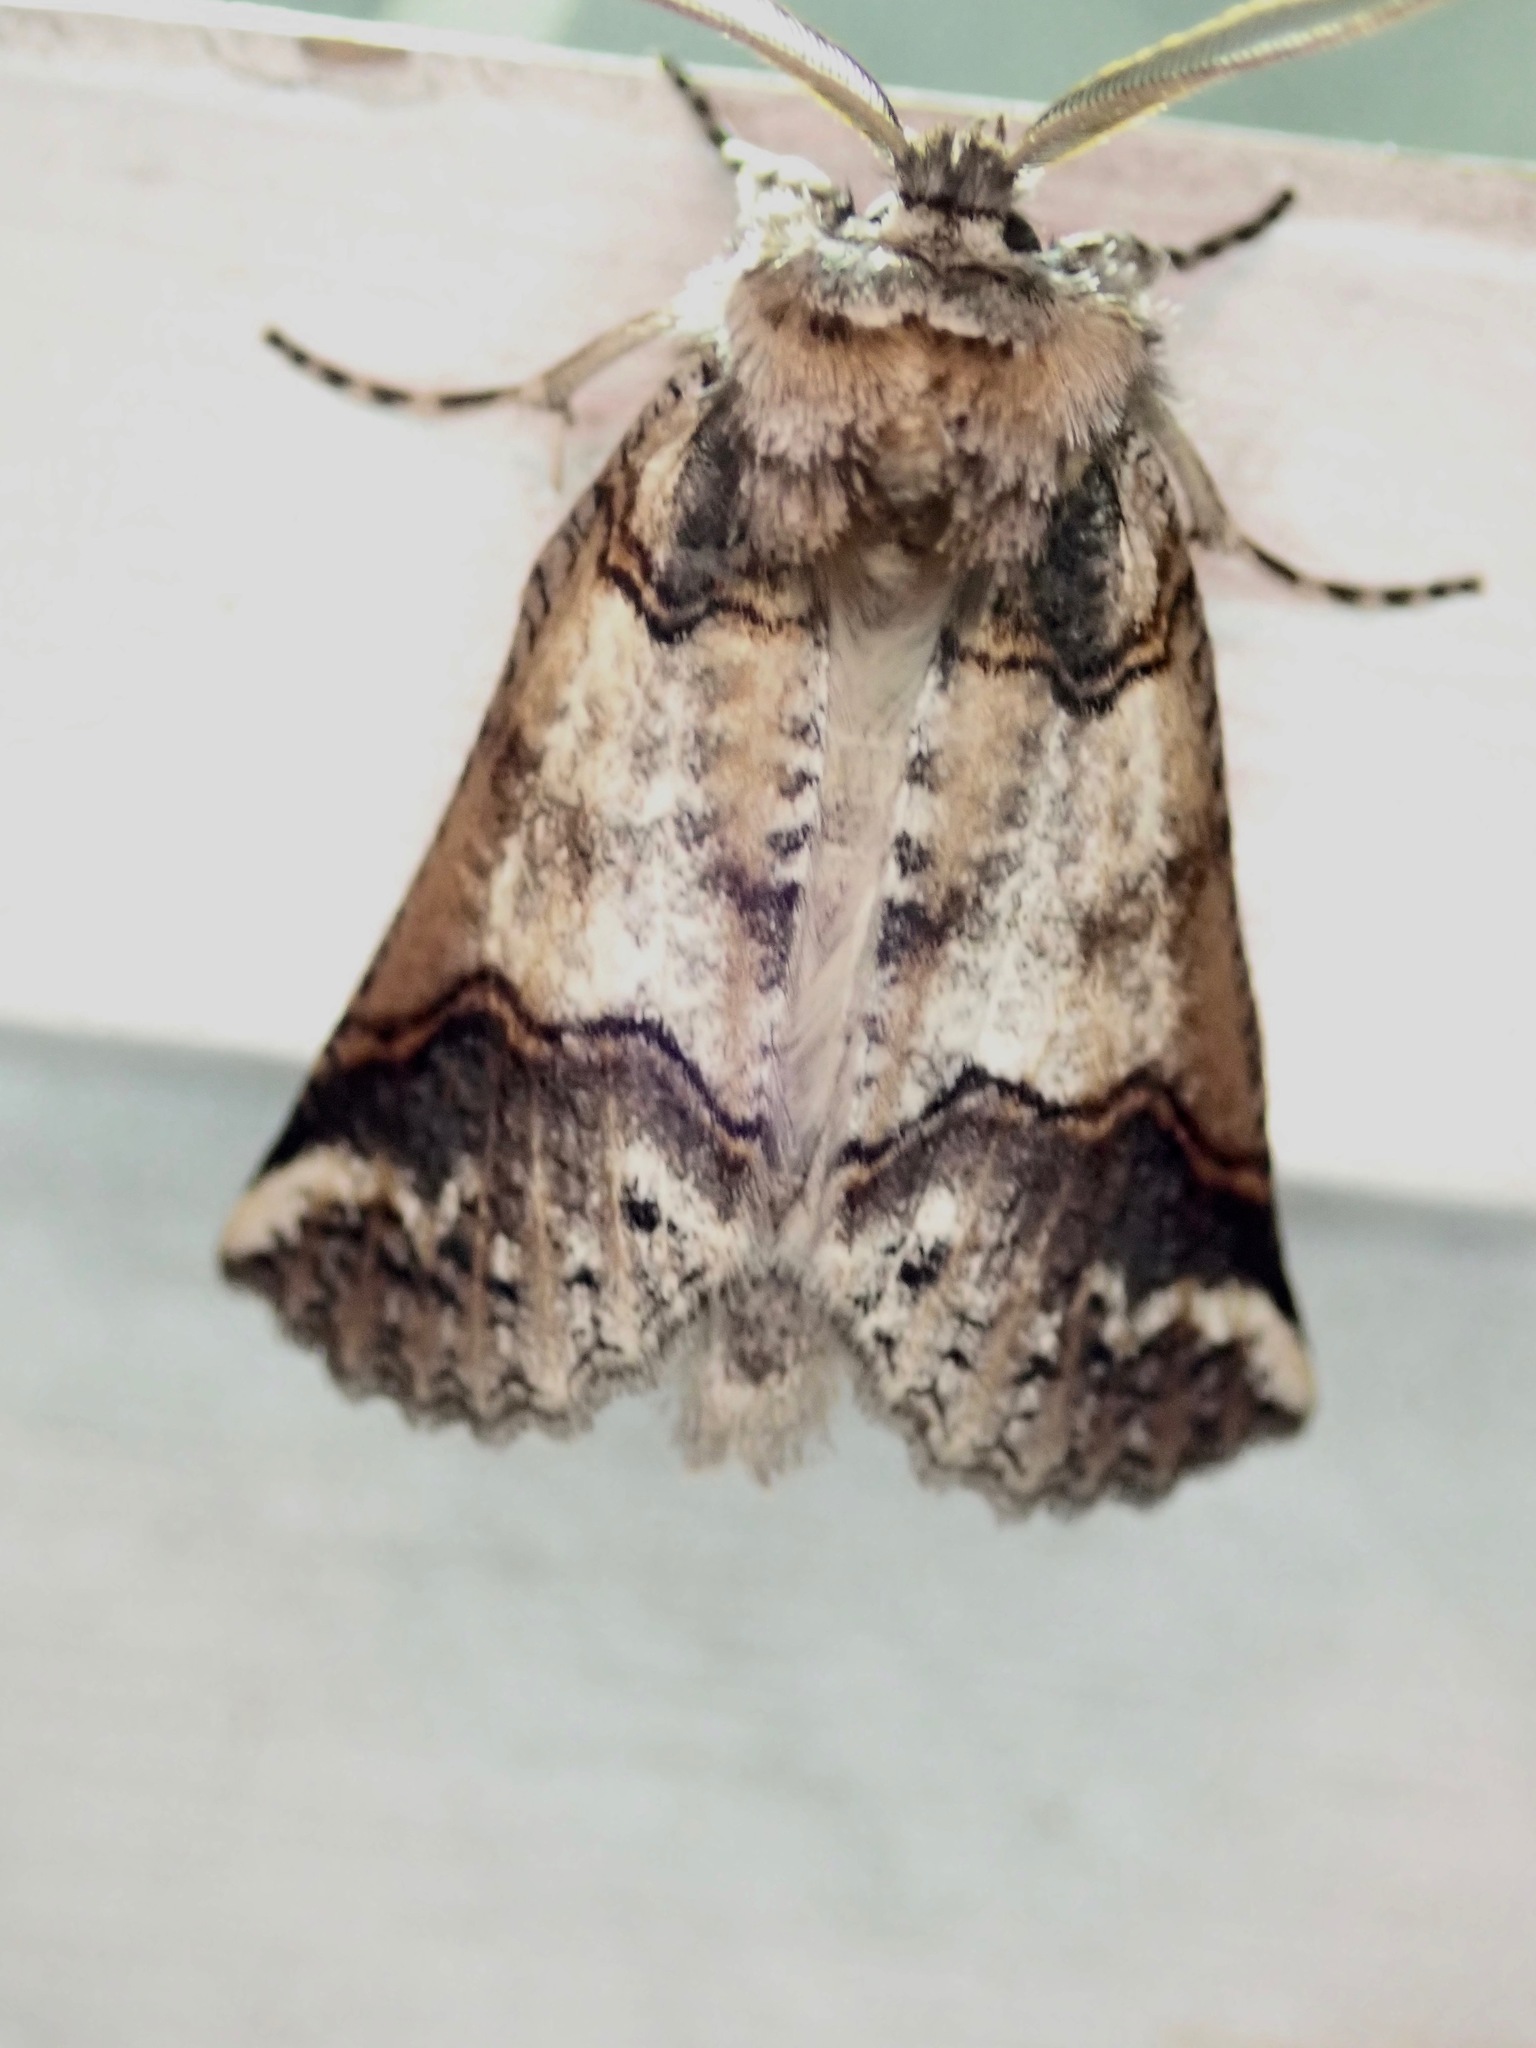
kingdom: Animalia
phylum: Arthropoda
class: Insecta
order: Lepidoptera
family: Geometridae
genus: Declana
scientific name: Declana
